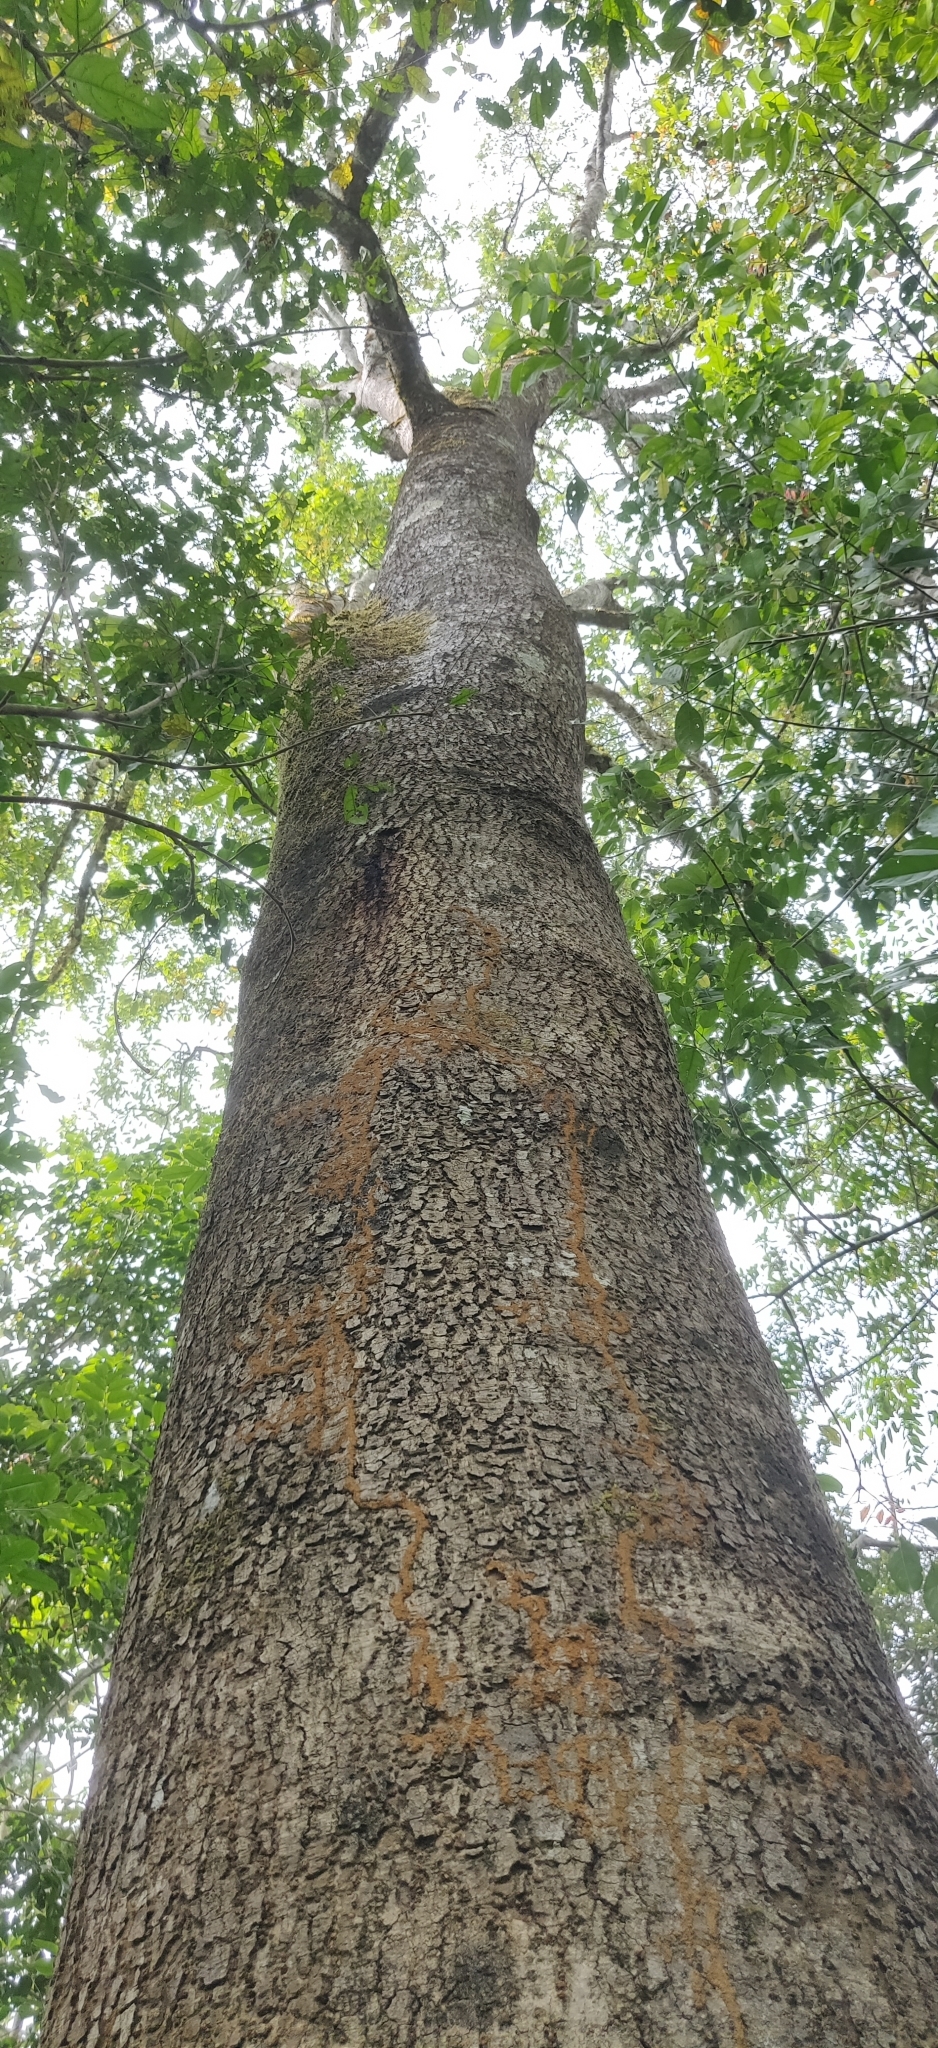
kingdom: Plantae
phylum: Tracheophyta
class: Magnoliopsida
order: Laurales
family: Lauraceae
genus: Machilus
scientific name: Machilus glaucescens
